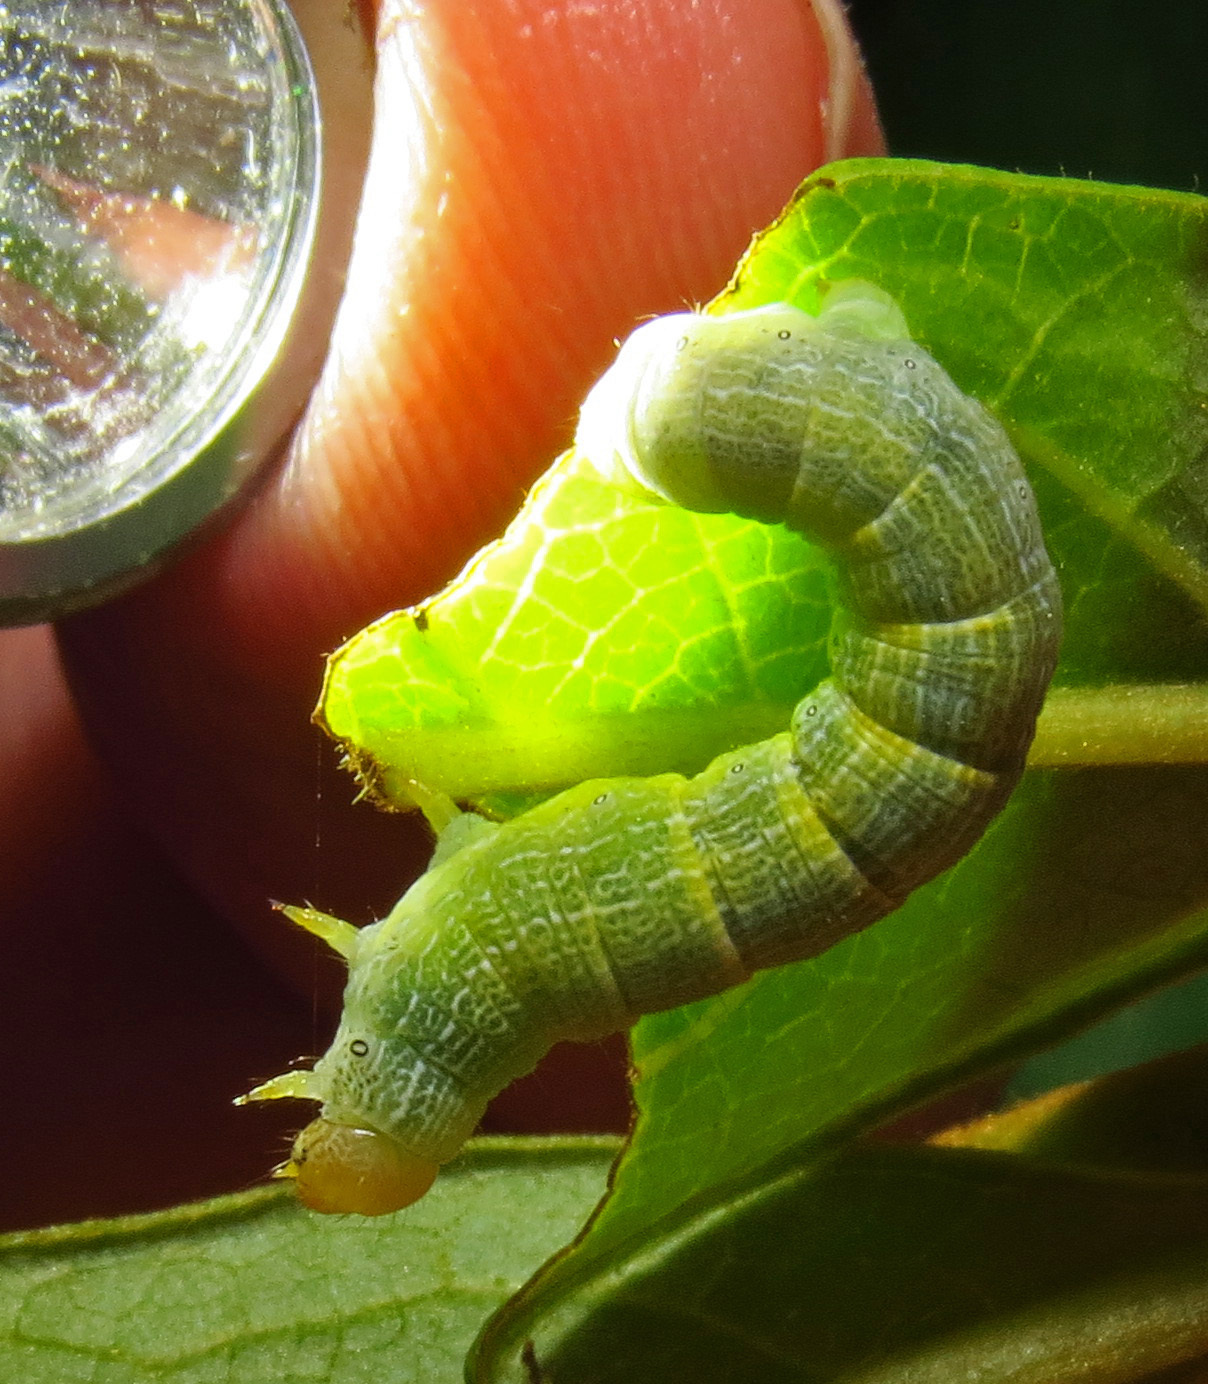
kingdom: Animalia
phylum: Arthropoda
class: Insecta
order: Lepidoptera
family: Geometridae
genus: Epimecis
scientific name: Epimecis hortaria
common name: Tulip-tree beauty
